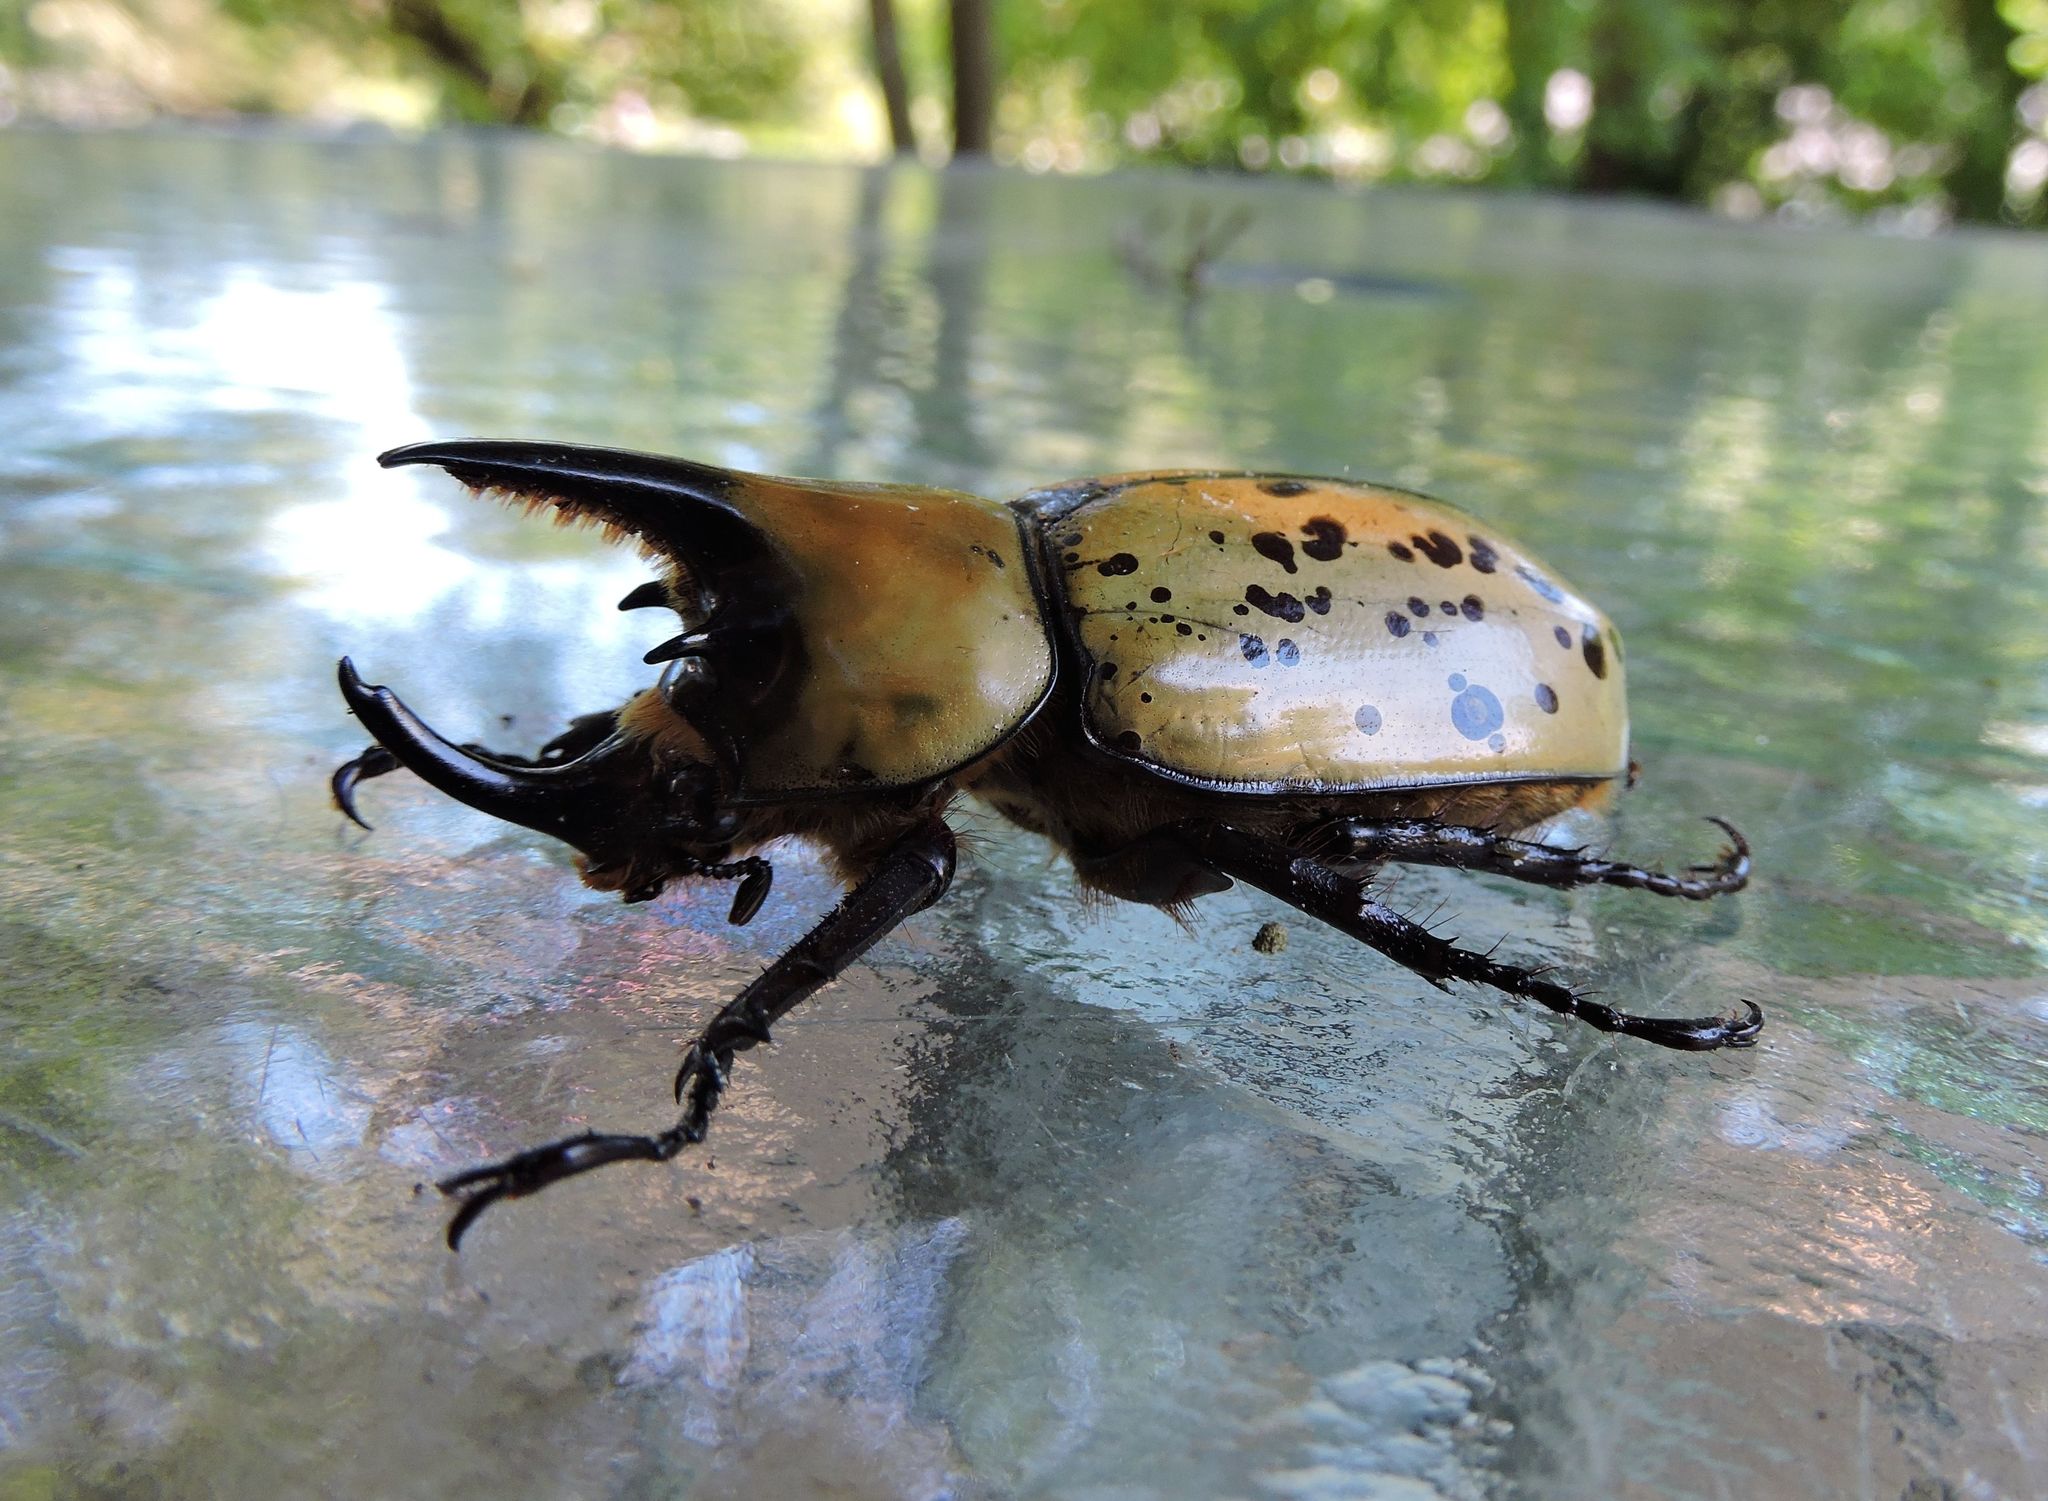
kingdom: Animalia
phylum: Arthropoda
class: Insecta
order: Coleoptera
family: Scarabaeidae
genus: Dynastes
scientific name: Dynastes tityus
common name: Eastern hercules beetle
